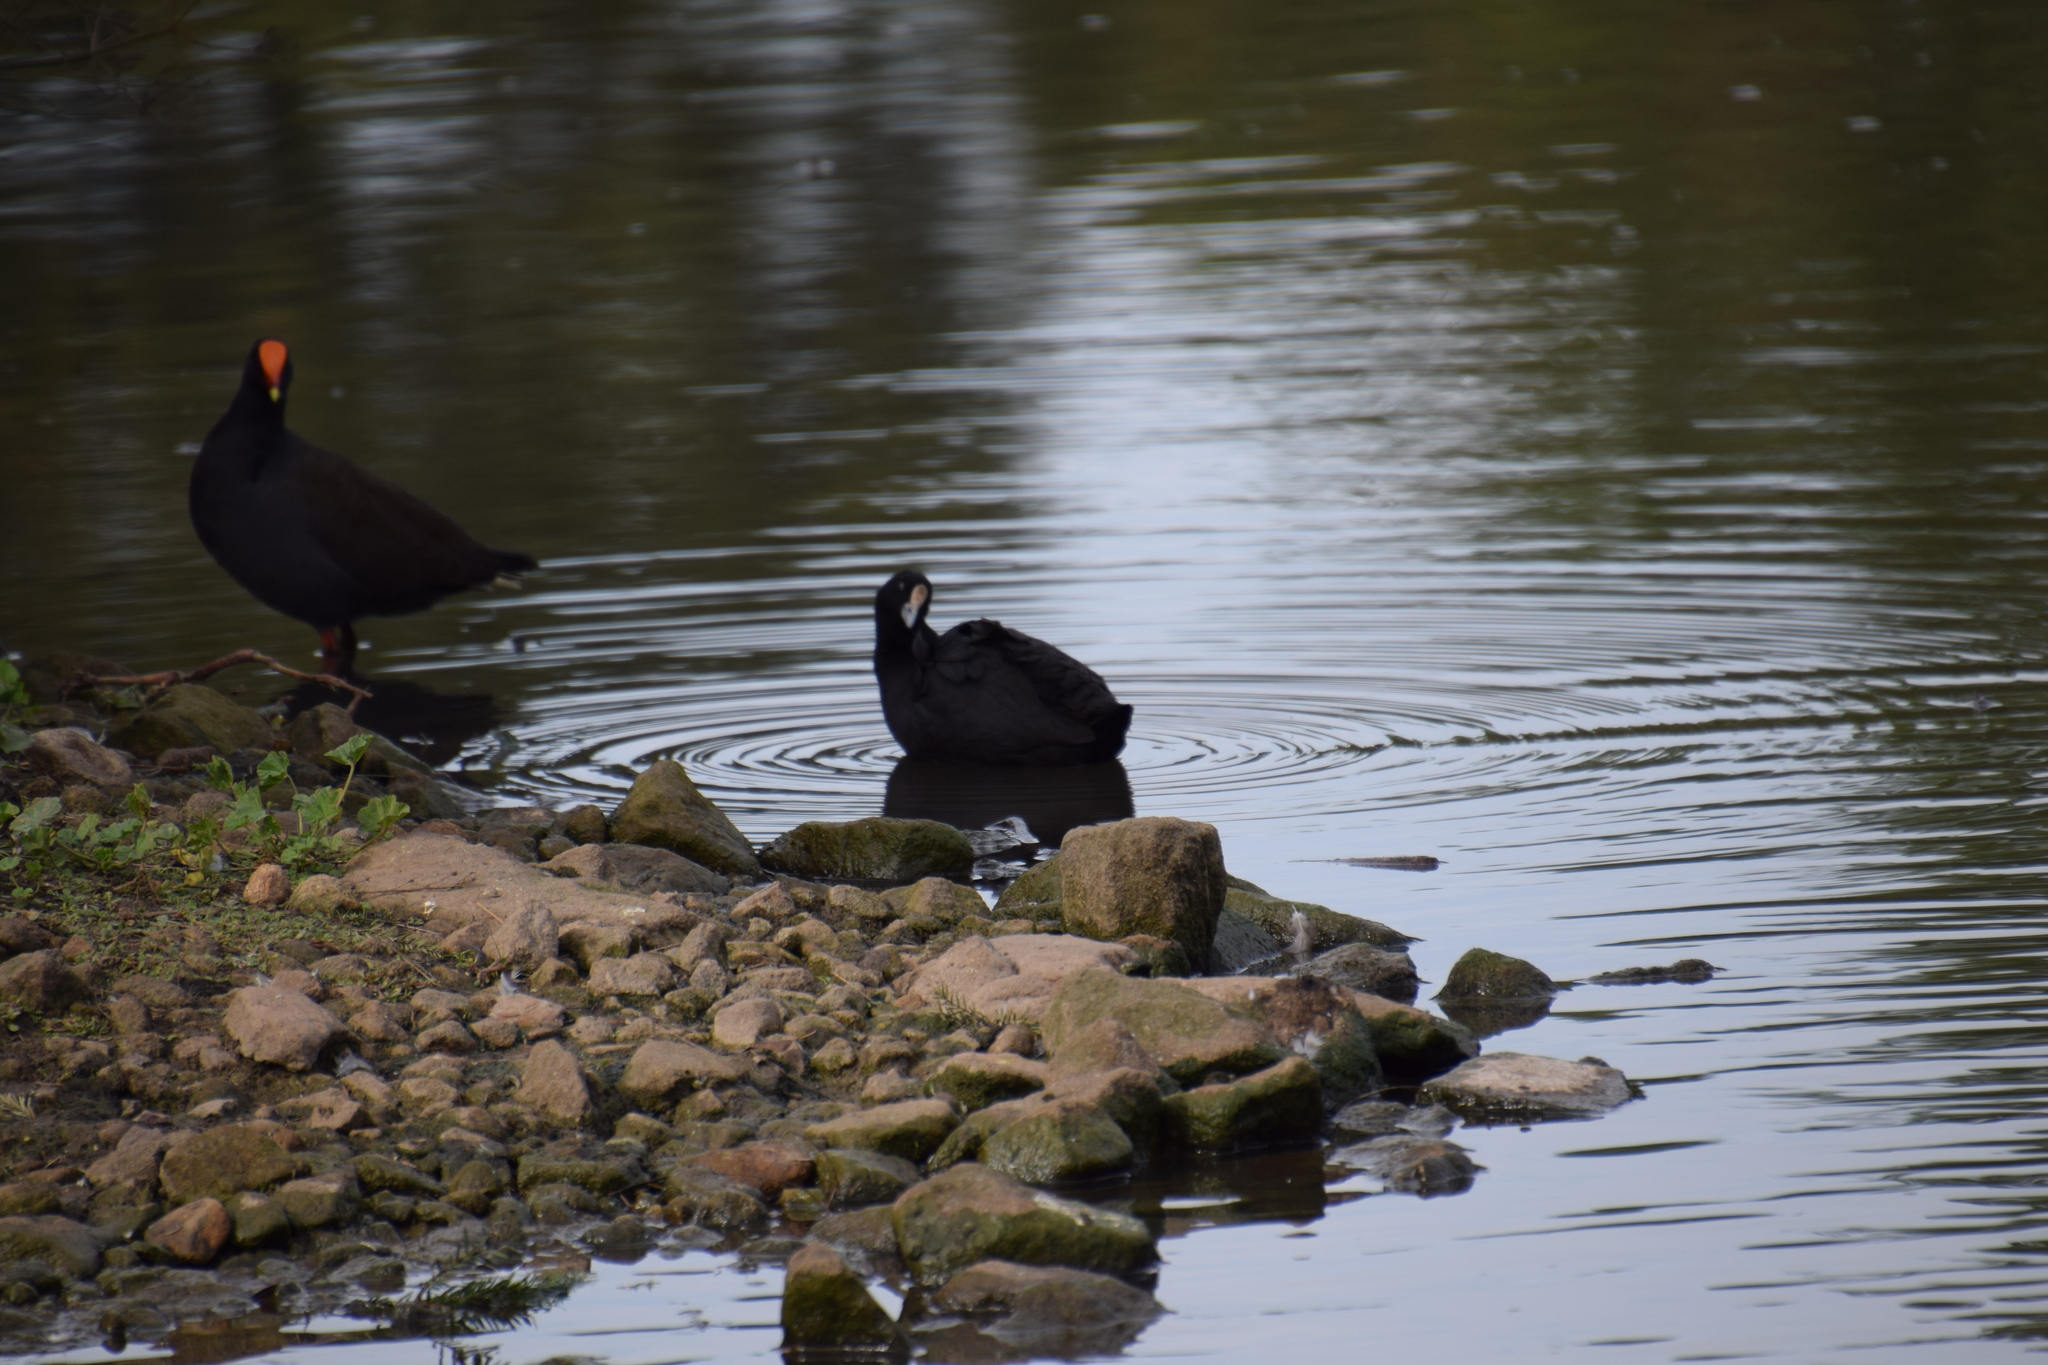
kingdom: Animalia
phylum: Chordata
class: Aves
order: Gruiformes
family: Rallidae
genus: Fulica
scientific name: Fulica atra
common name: Eurasian coot
